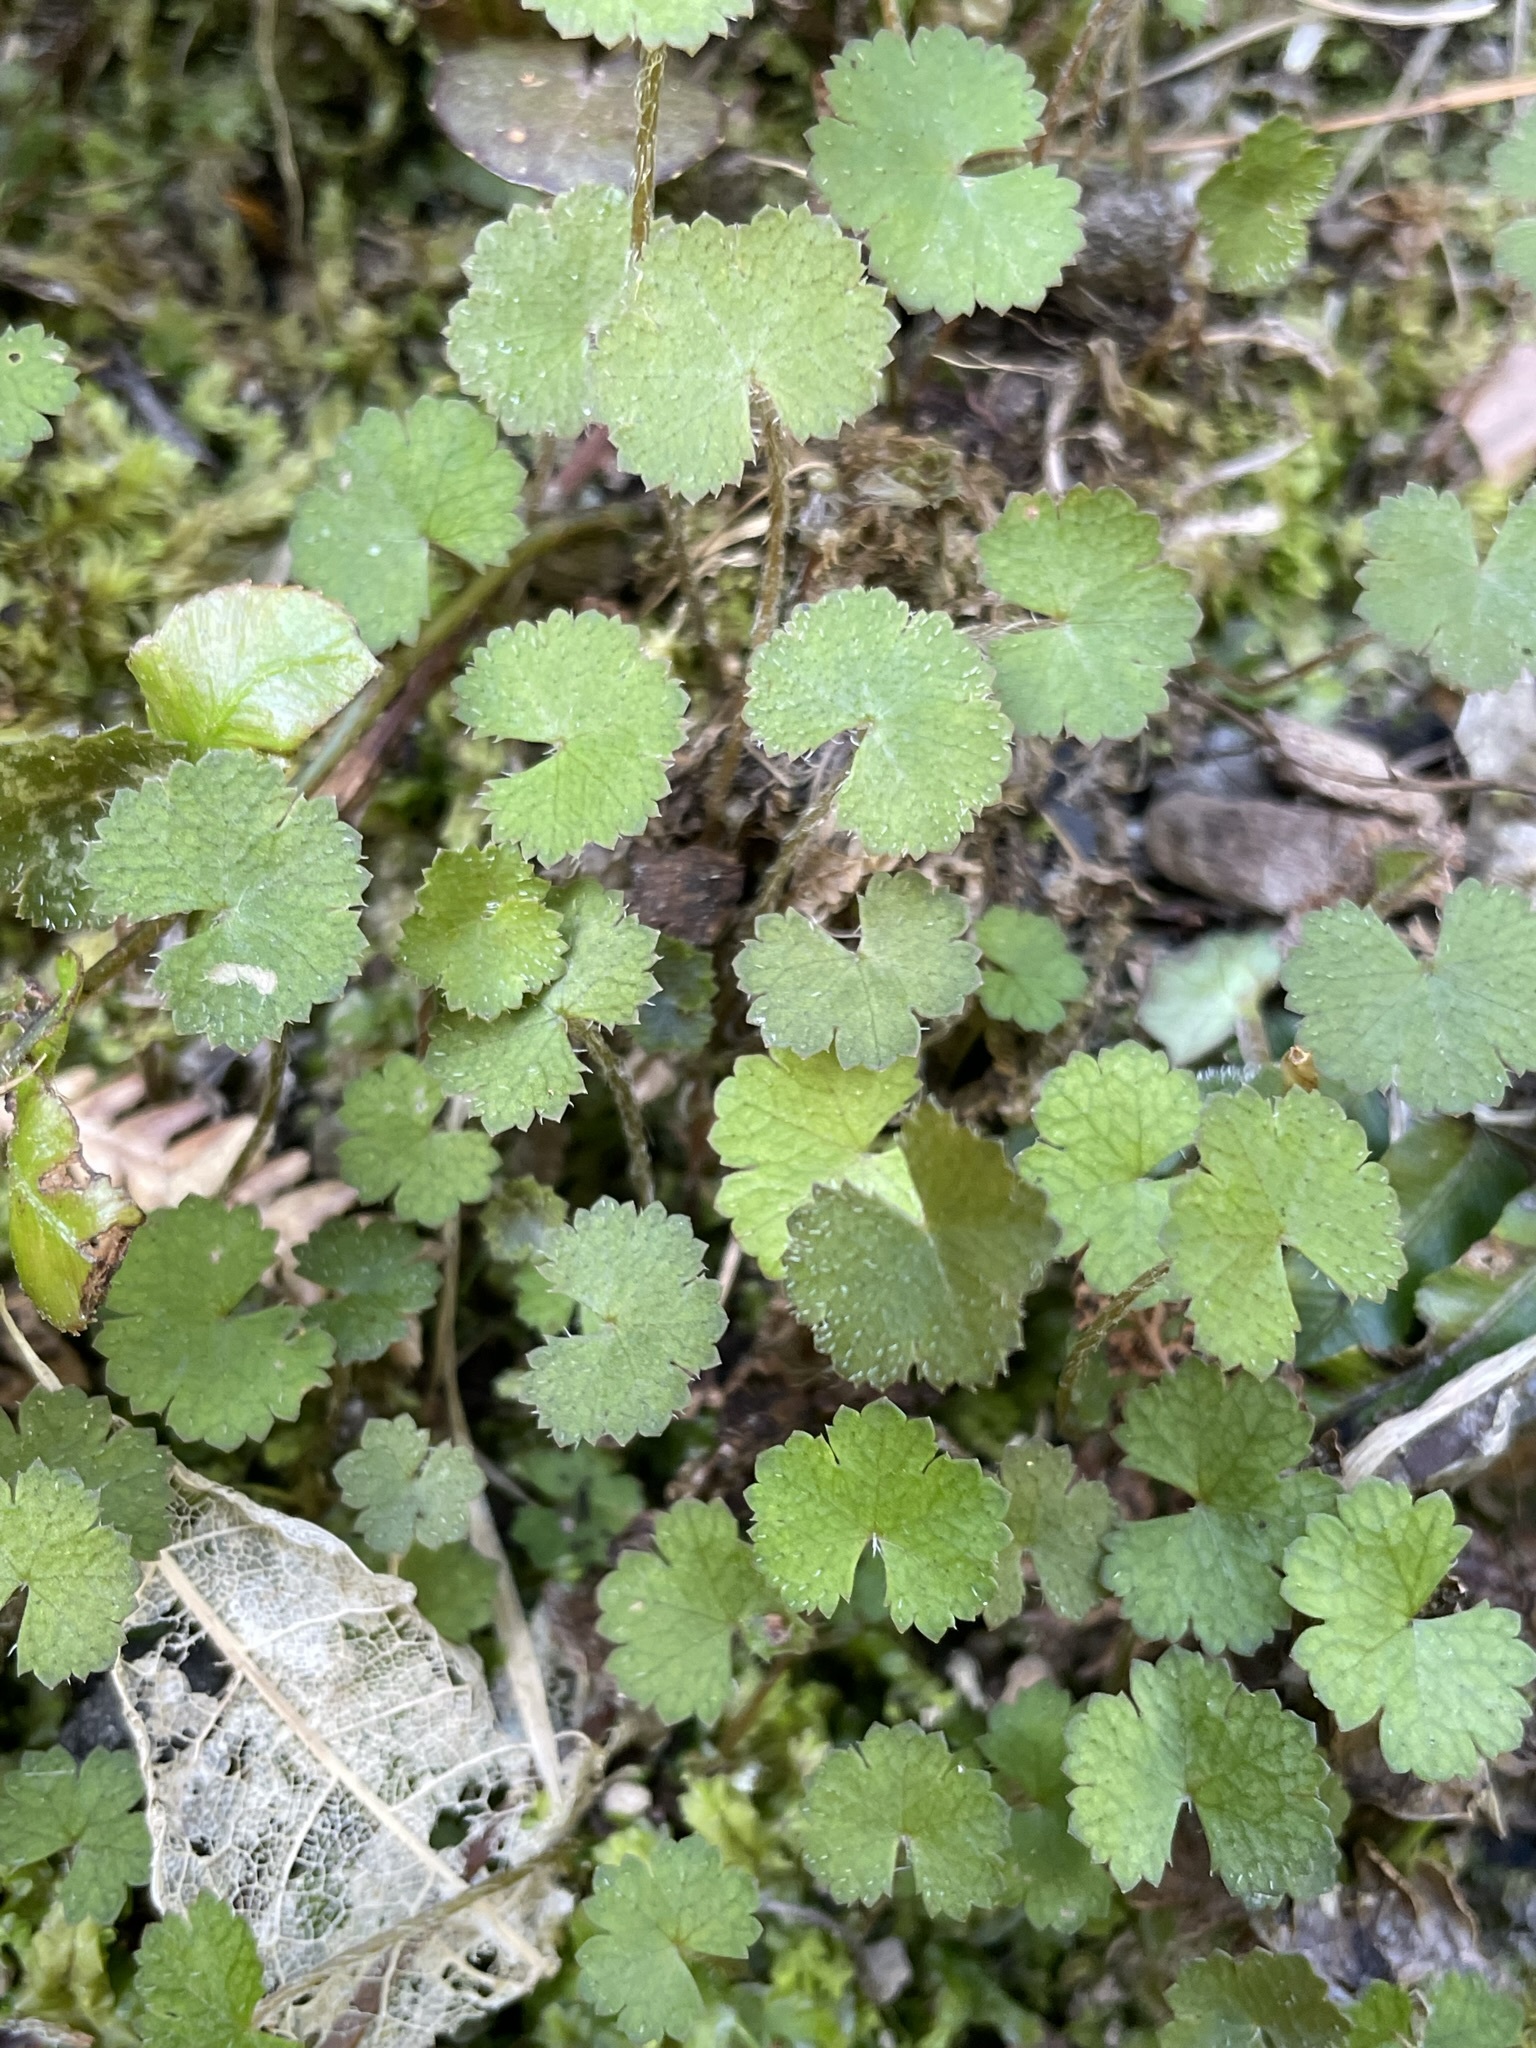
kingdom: Plantae
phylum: Tracheophyta
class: Magnoliopsida
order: Apiales
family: Araliaceae
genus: Hydrocotyle
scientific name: Hydrocotyle moschata
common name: Hairy pennywort
